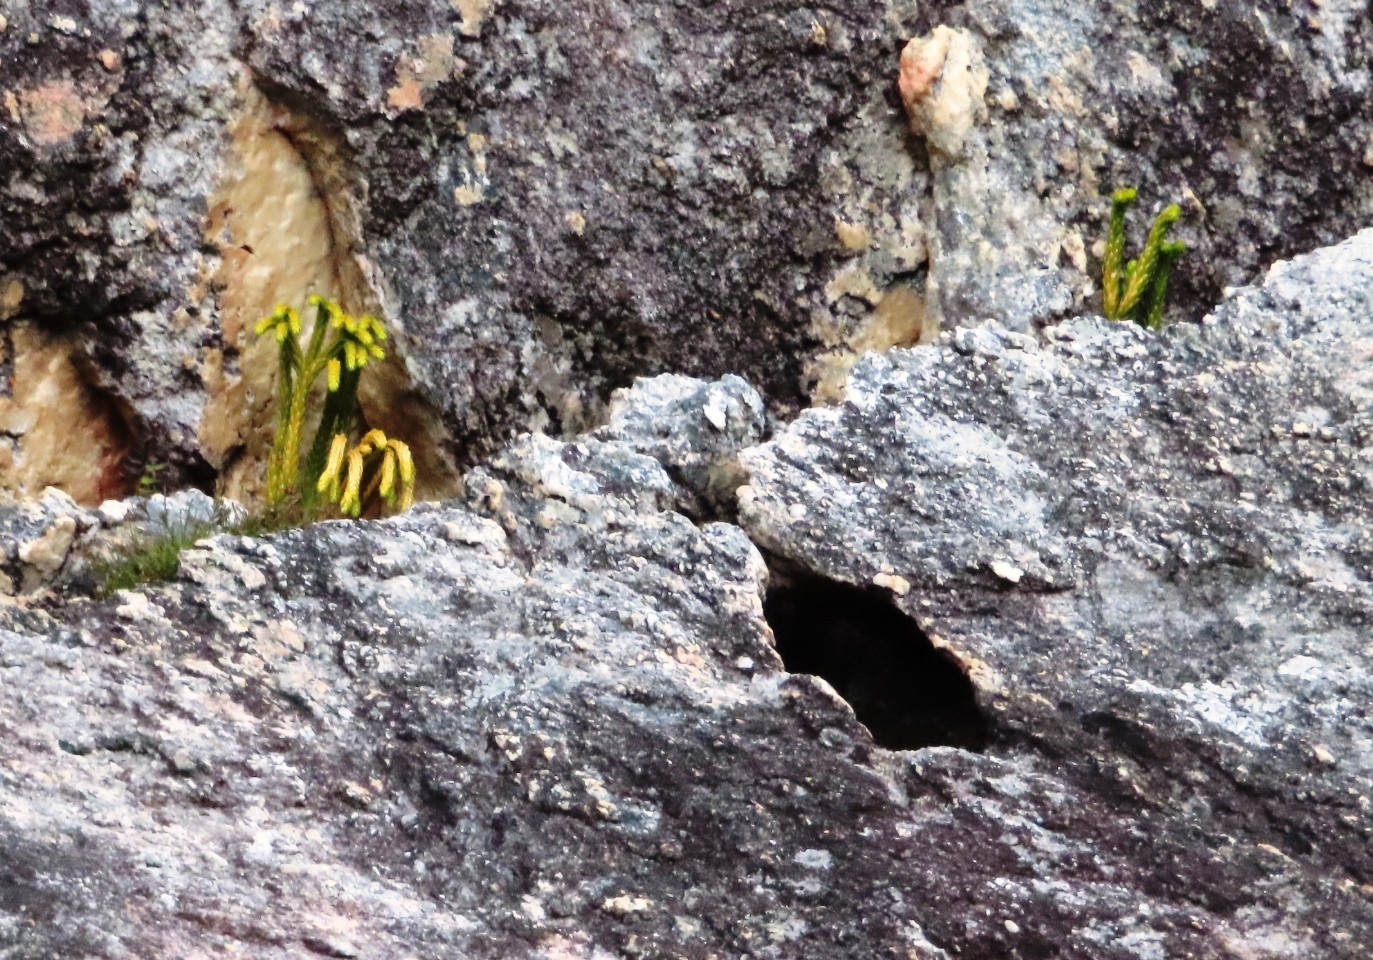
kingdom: Plantae
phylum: Tracheophyta
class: Lycopodiopsida
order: Lycopodiales
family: Lycopodiaceae
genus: Phlegmariurus
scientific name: Phlegmariurus gnidioides
